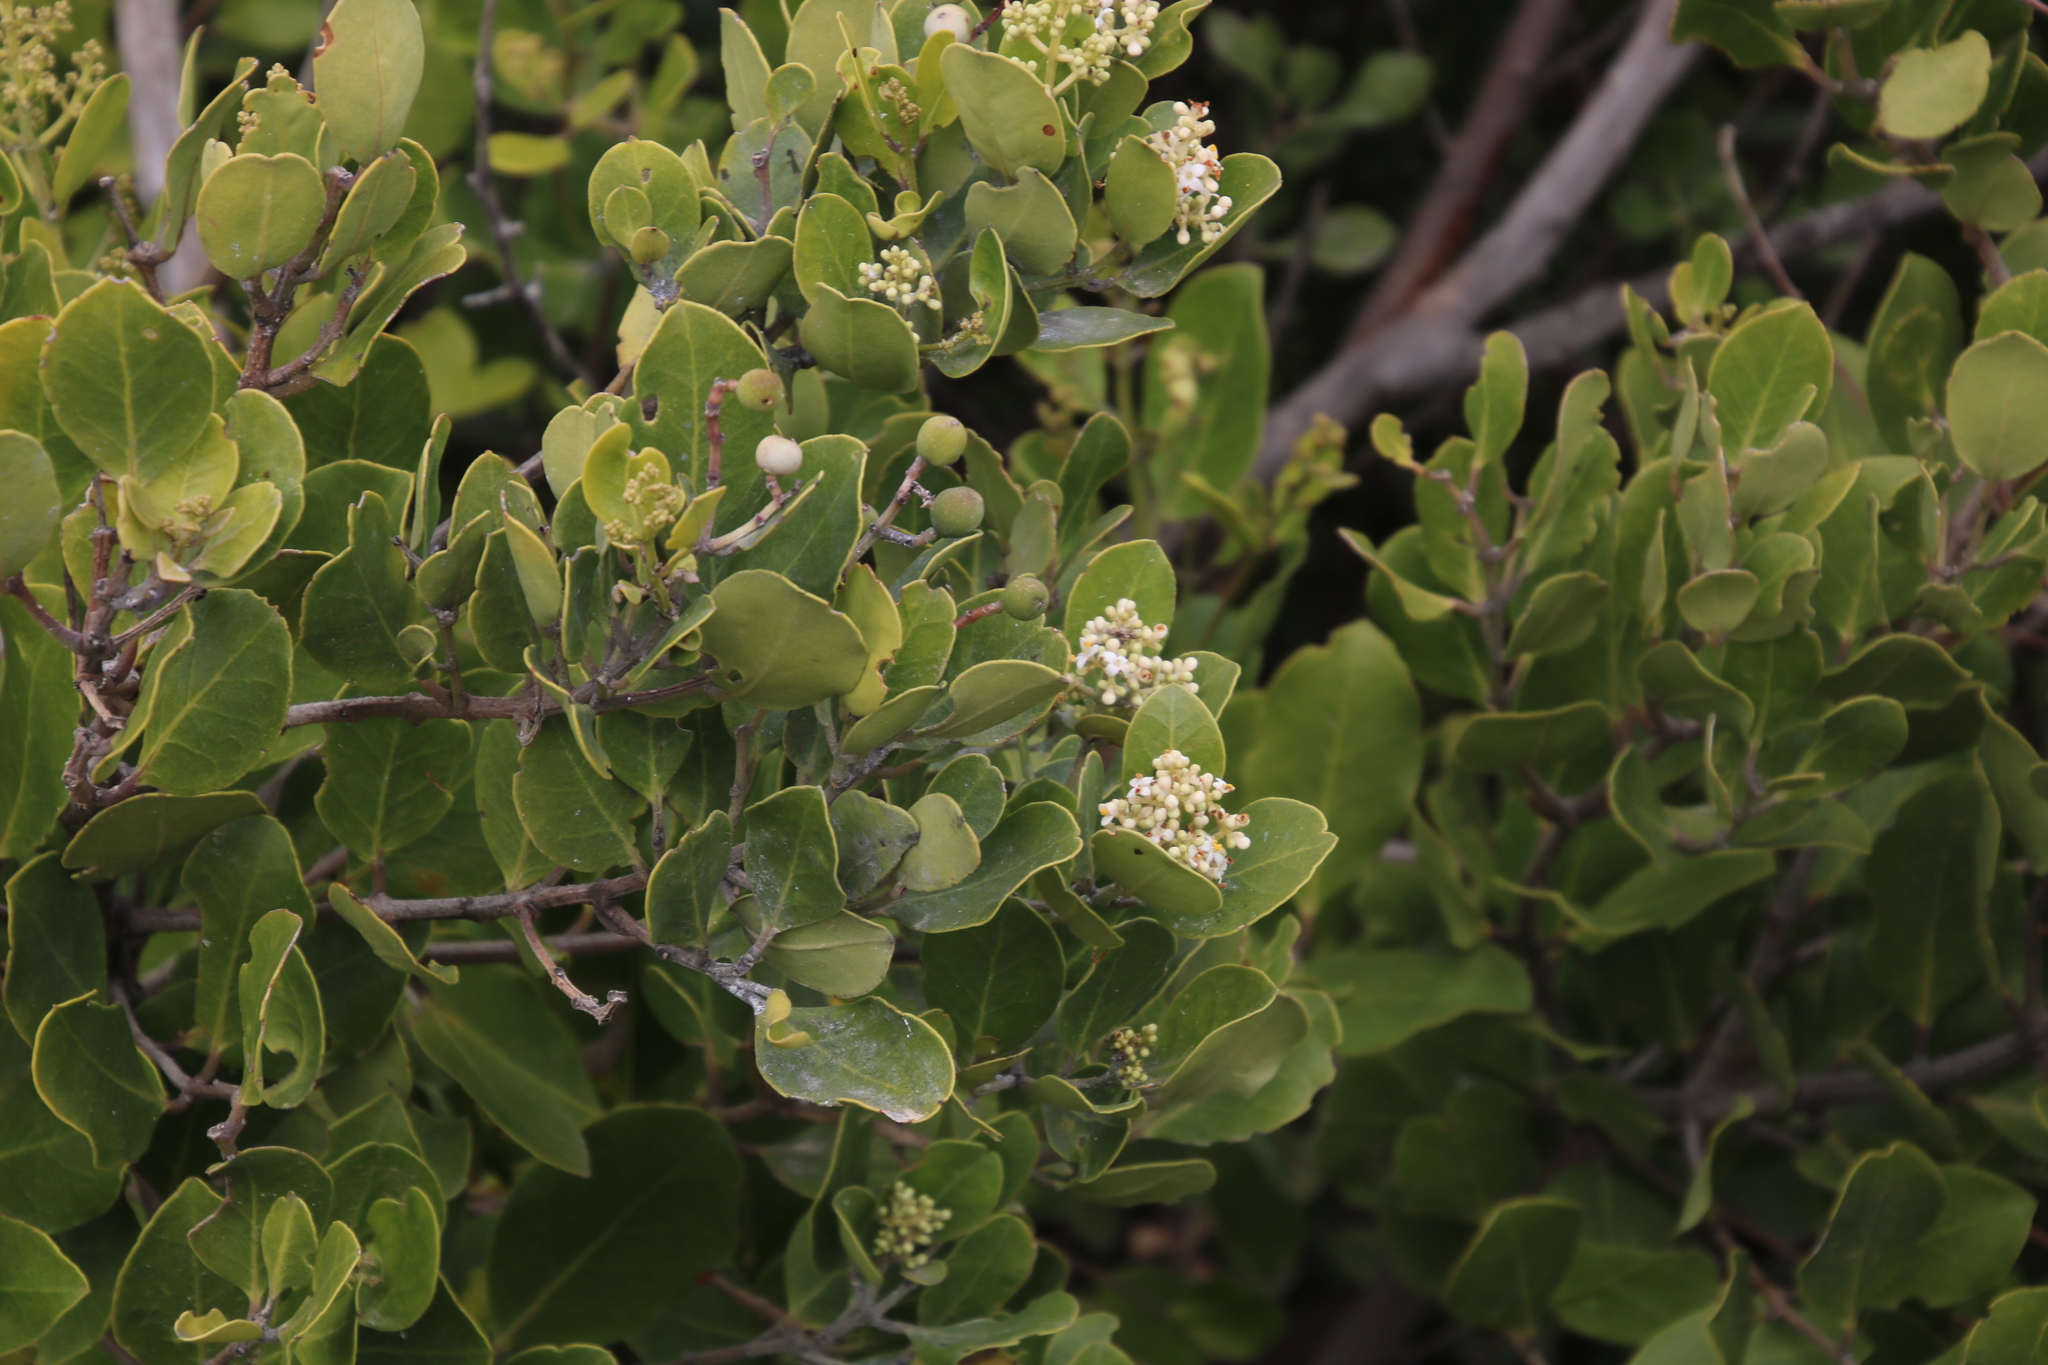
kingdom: Plantae
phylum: Tracheophyta
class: Magnoliopsida
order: Lamiales
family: Oleaceae
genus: Olea
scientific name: Olea capensis
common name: Black ironwood
